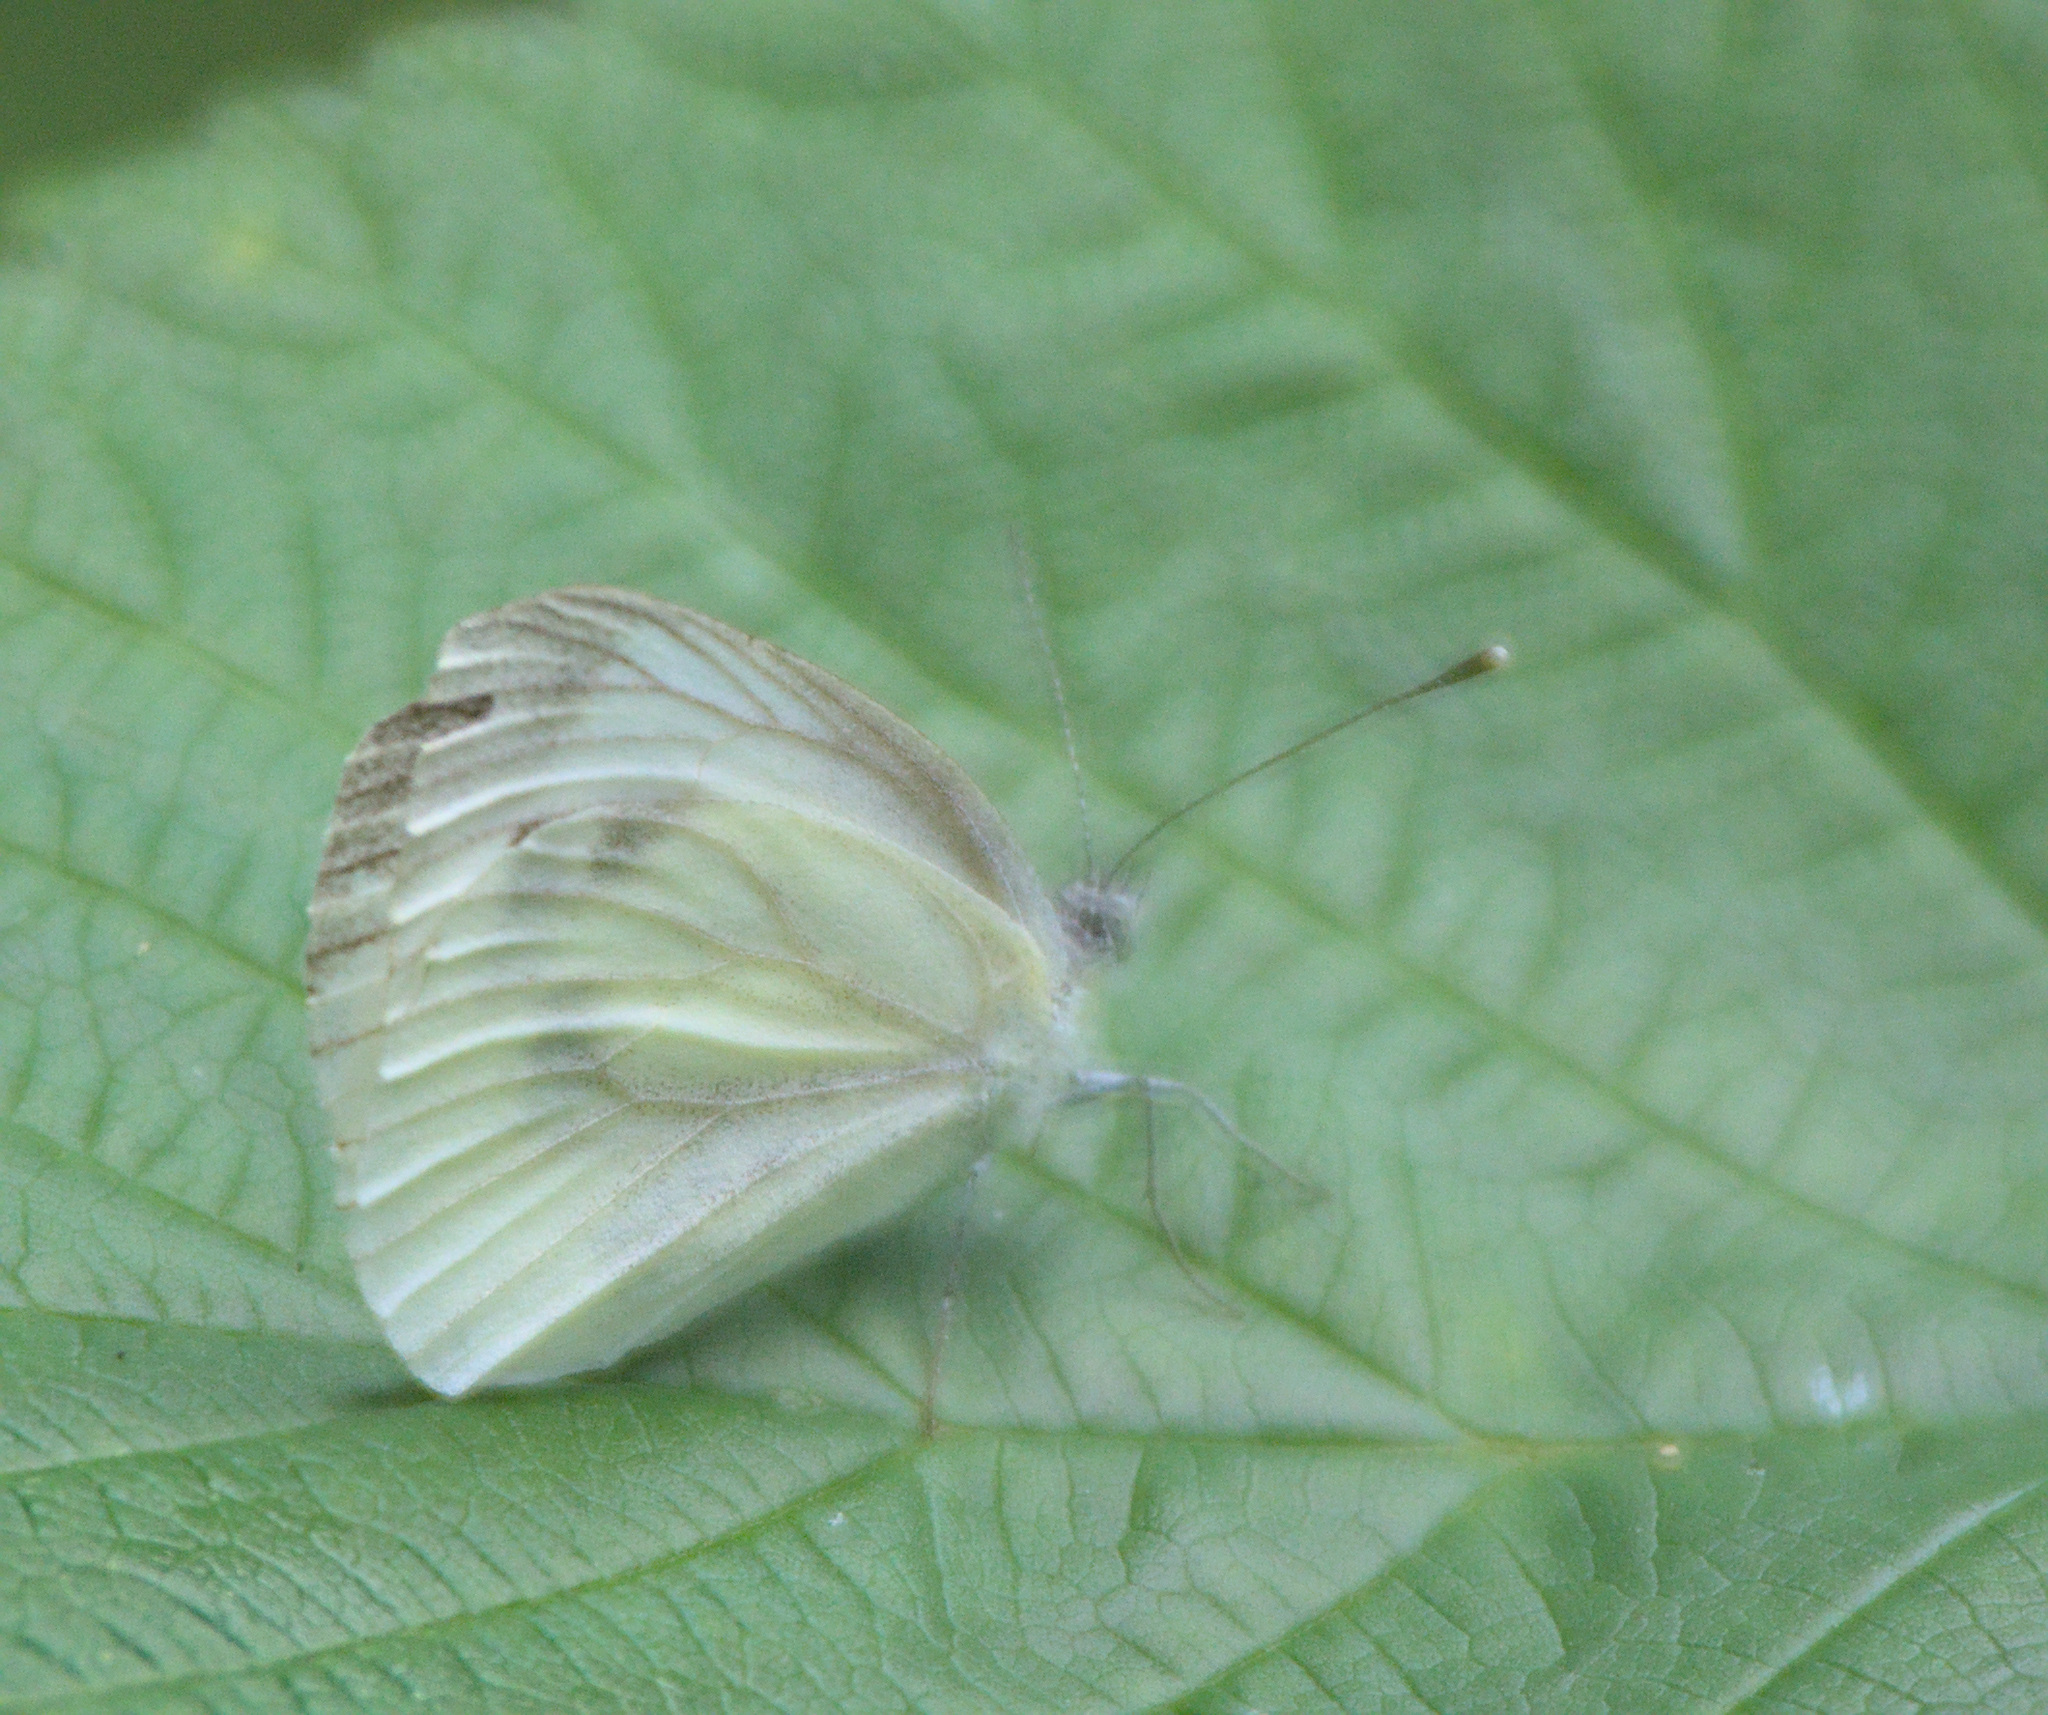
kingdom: Animalia
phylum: Arthropoda
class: Insecta
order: Lepidoptera
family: Pieridae
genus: Pieris
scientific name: Pieris napi
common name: Green-veined white
